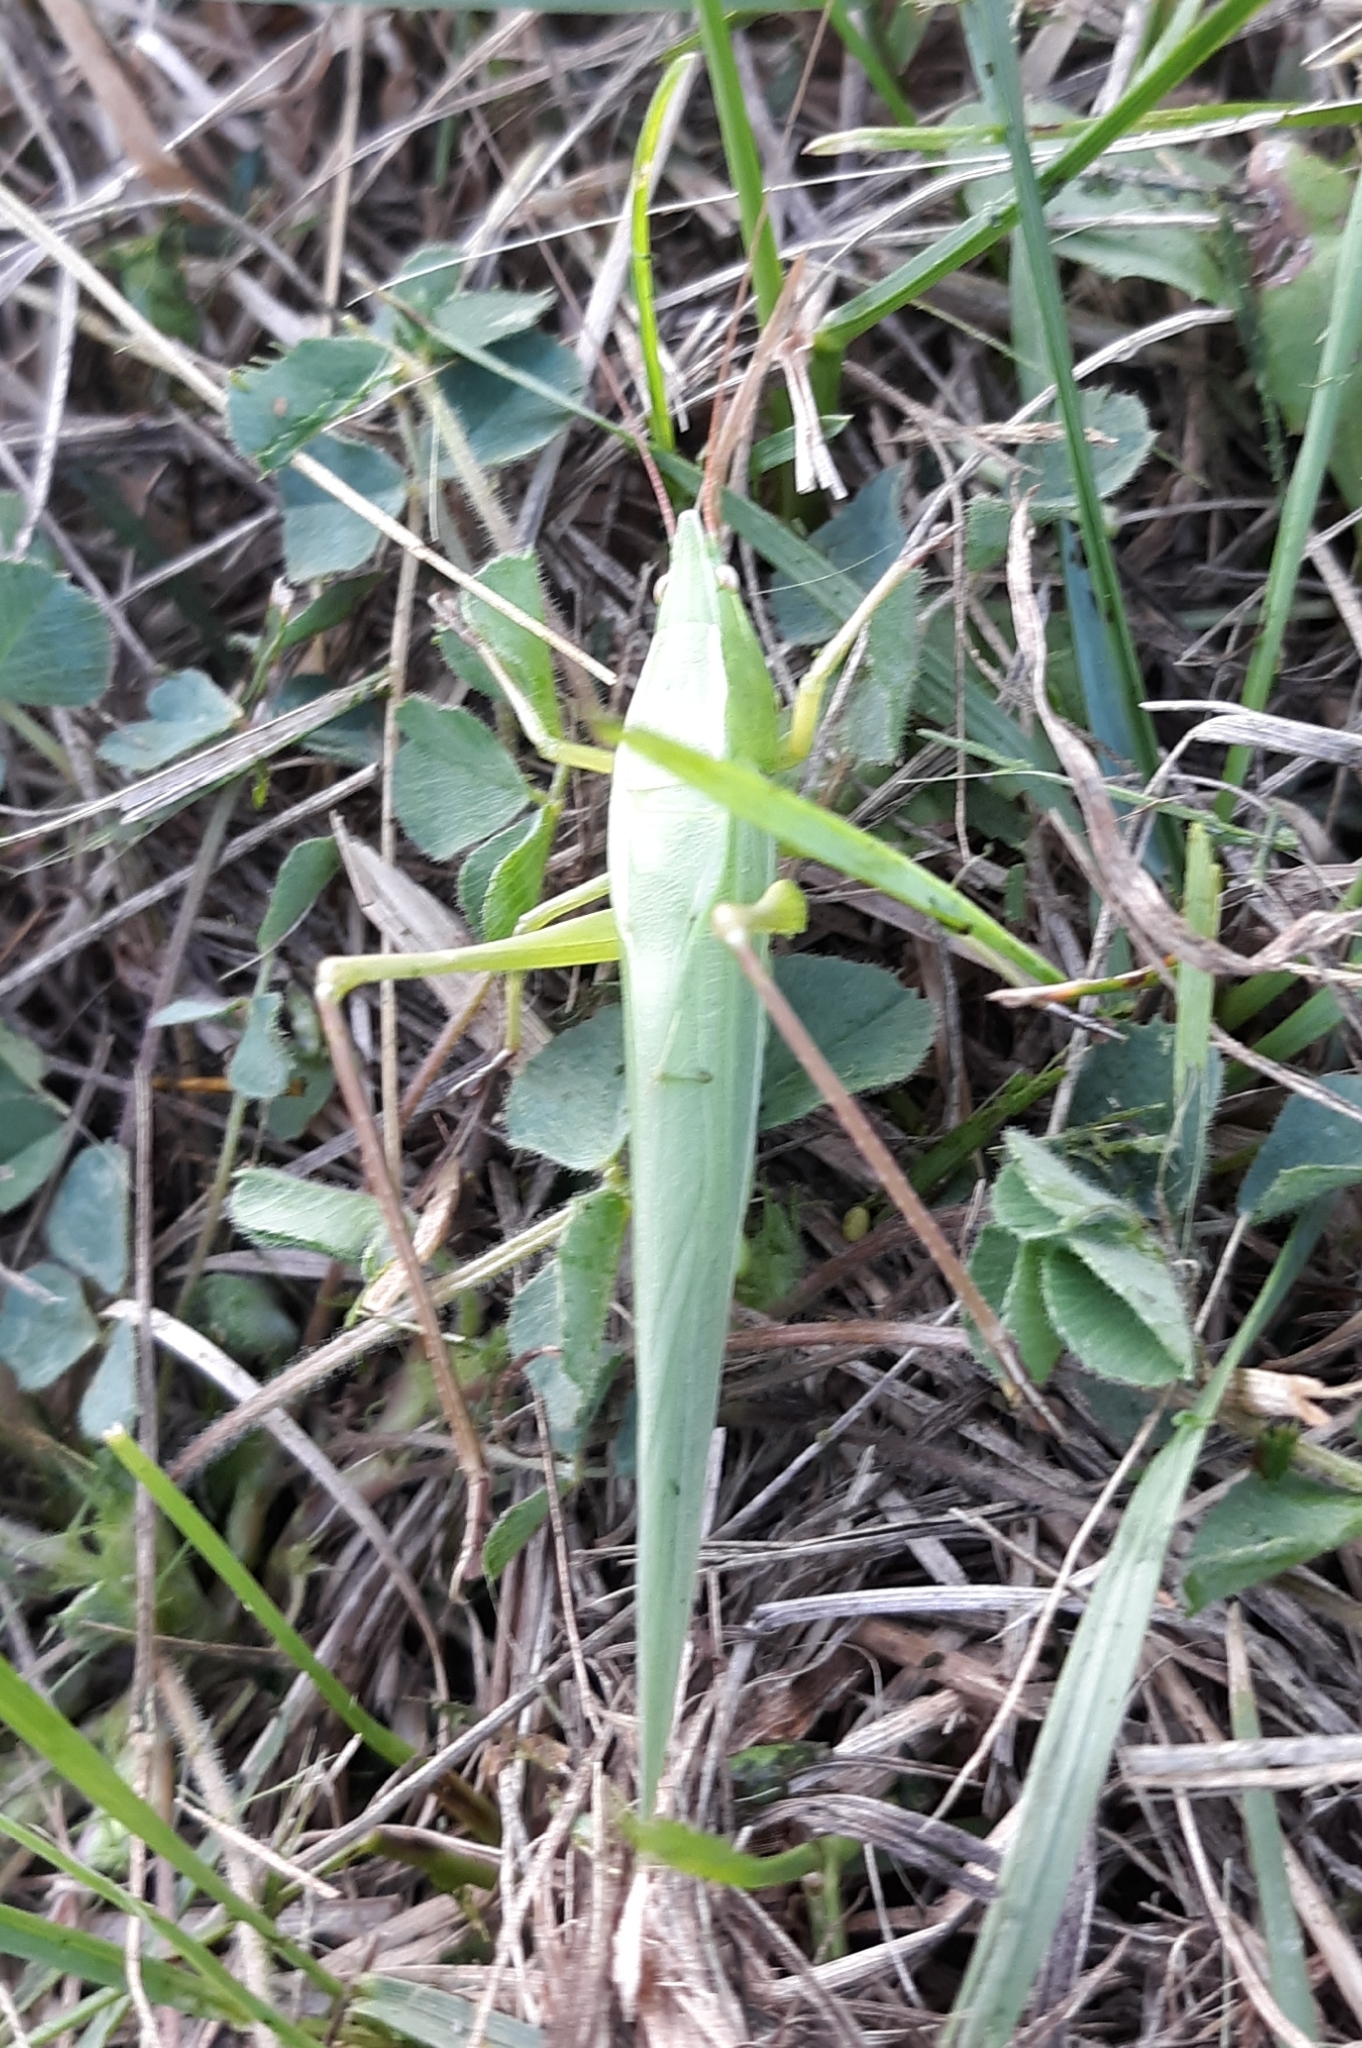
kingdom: Animalia
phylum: Arthropoda
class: Insecta
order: Orthoptera
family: Tettigoniidae
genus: Neoconocephalus
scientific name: Neoconocephalus ensiger
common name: Swordbearer
